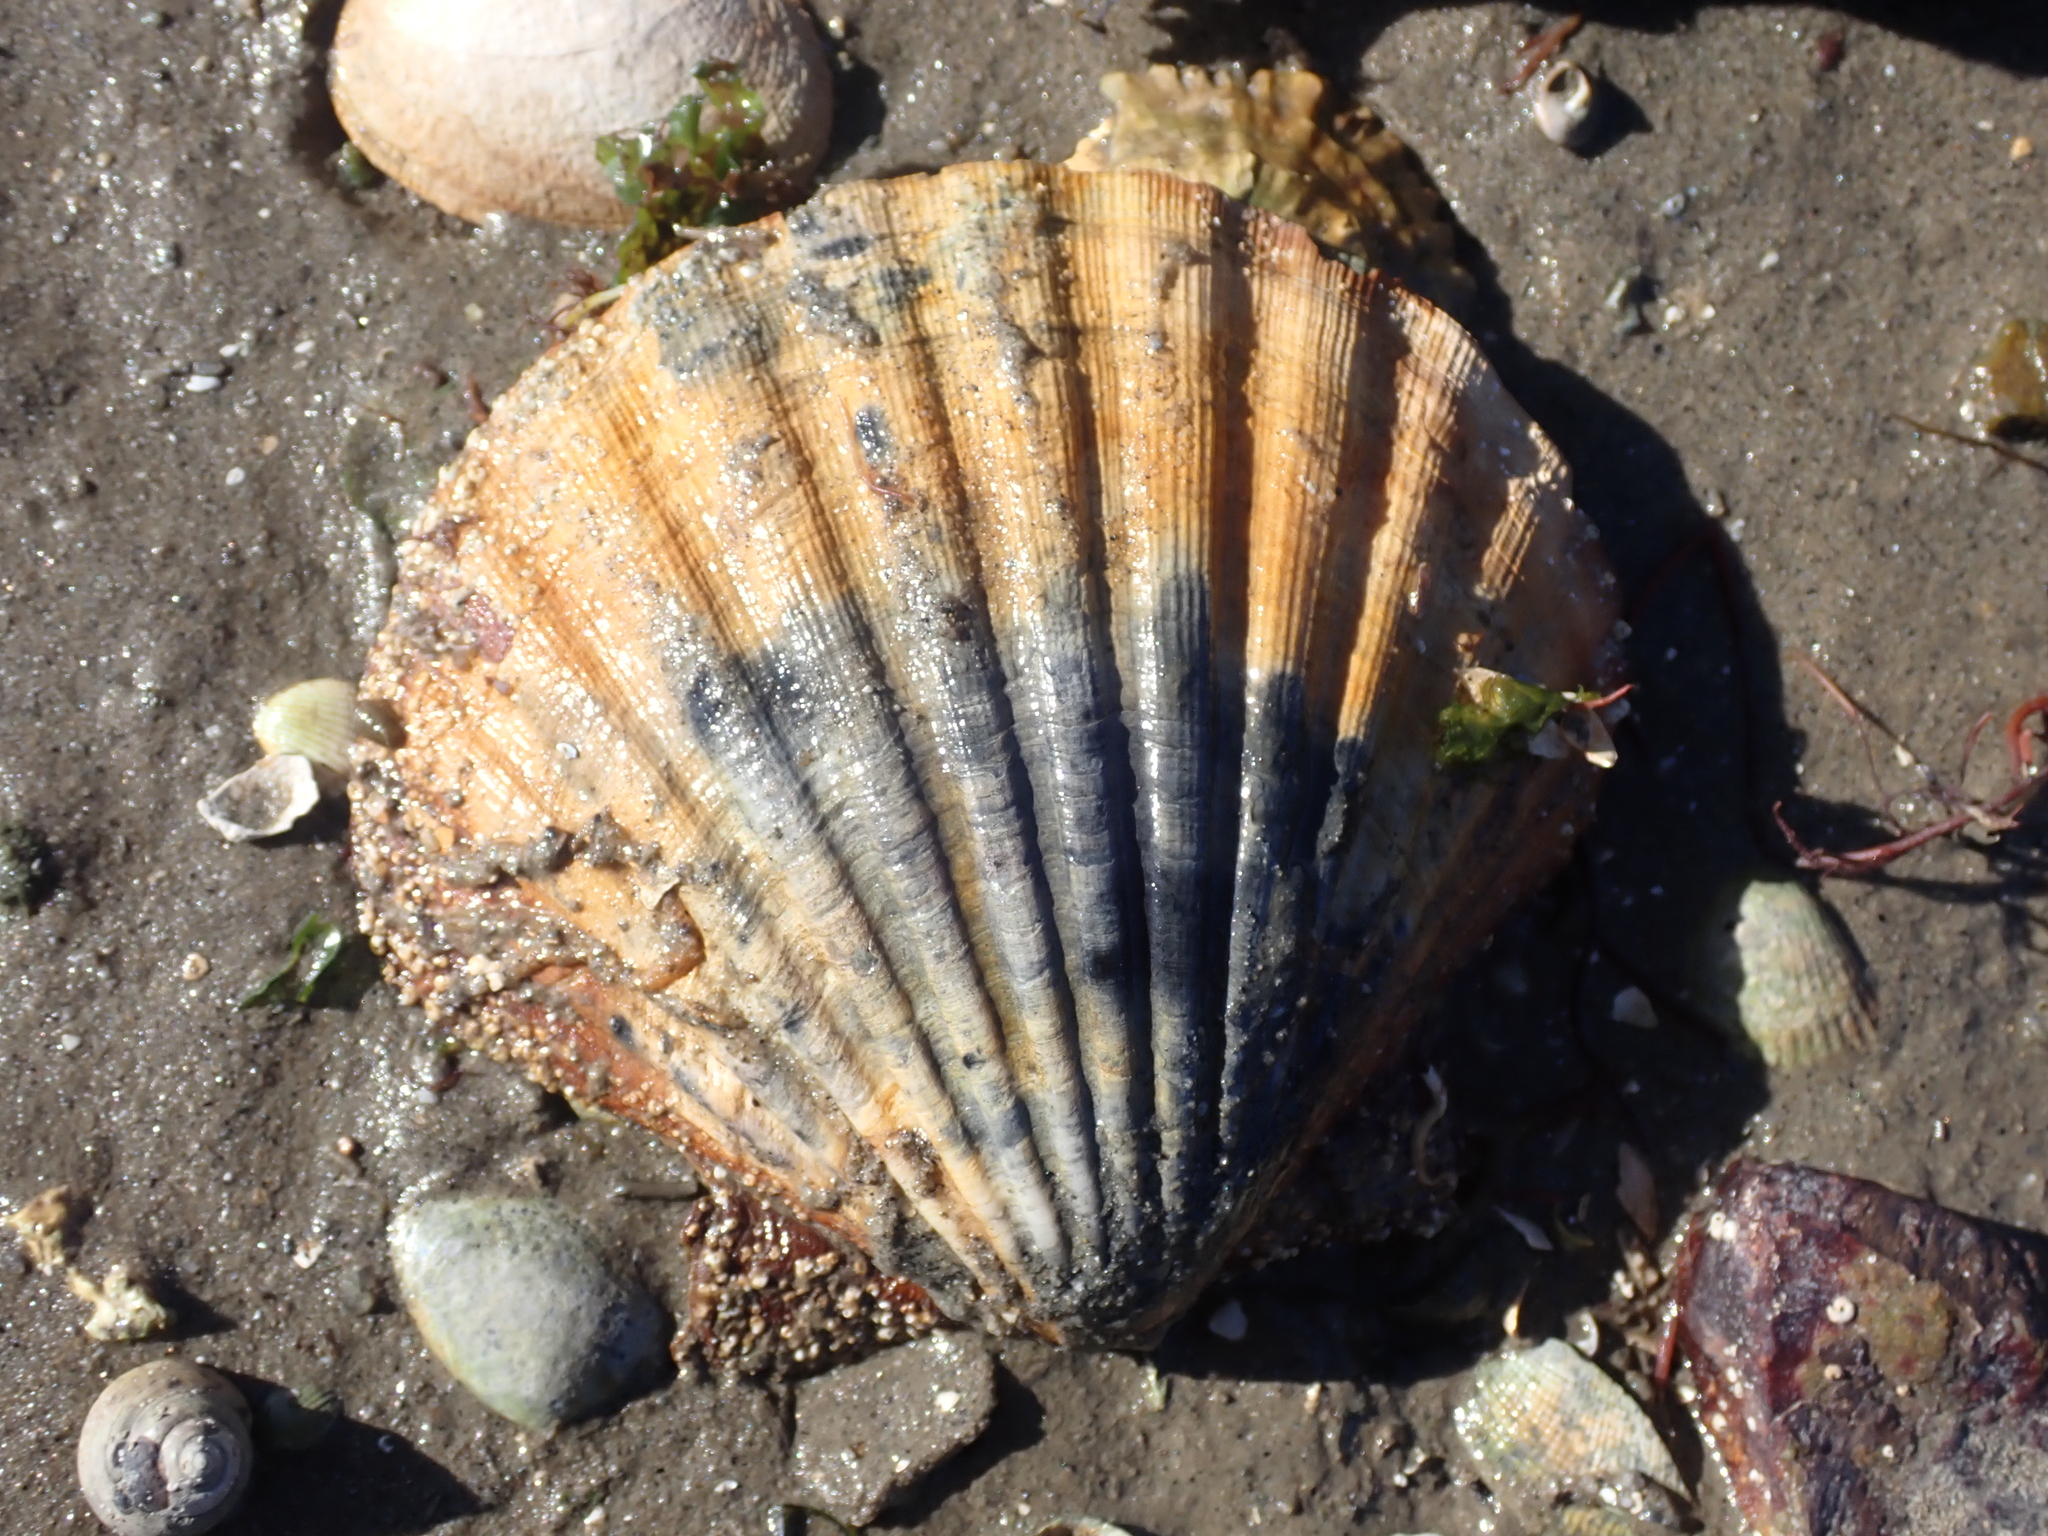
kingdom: Animalia
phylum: Mollusca
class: Bivalvia
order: Pectinida
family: Pectinidae
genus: Pecten
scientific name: Pecten maximus
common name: Great scallop
